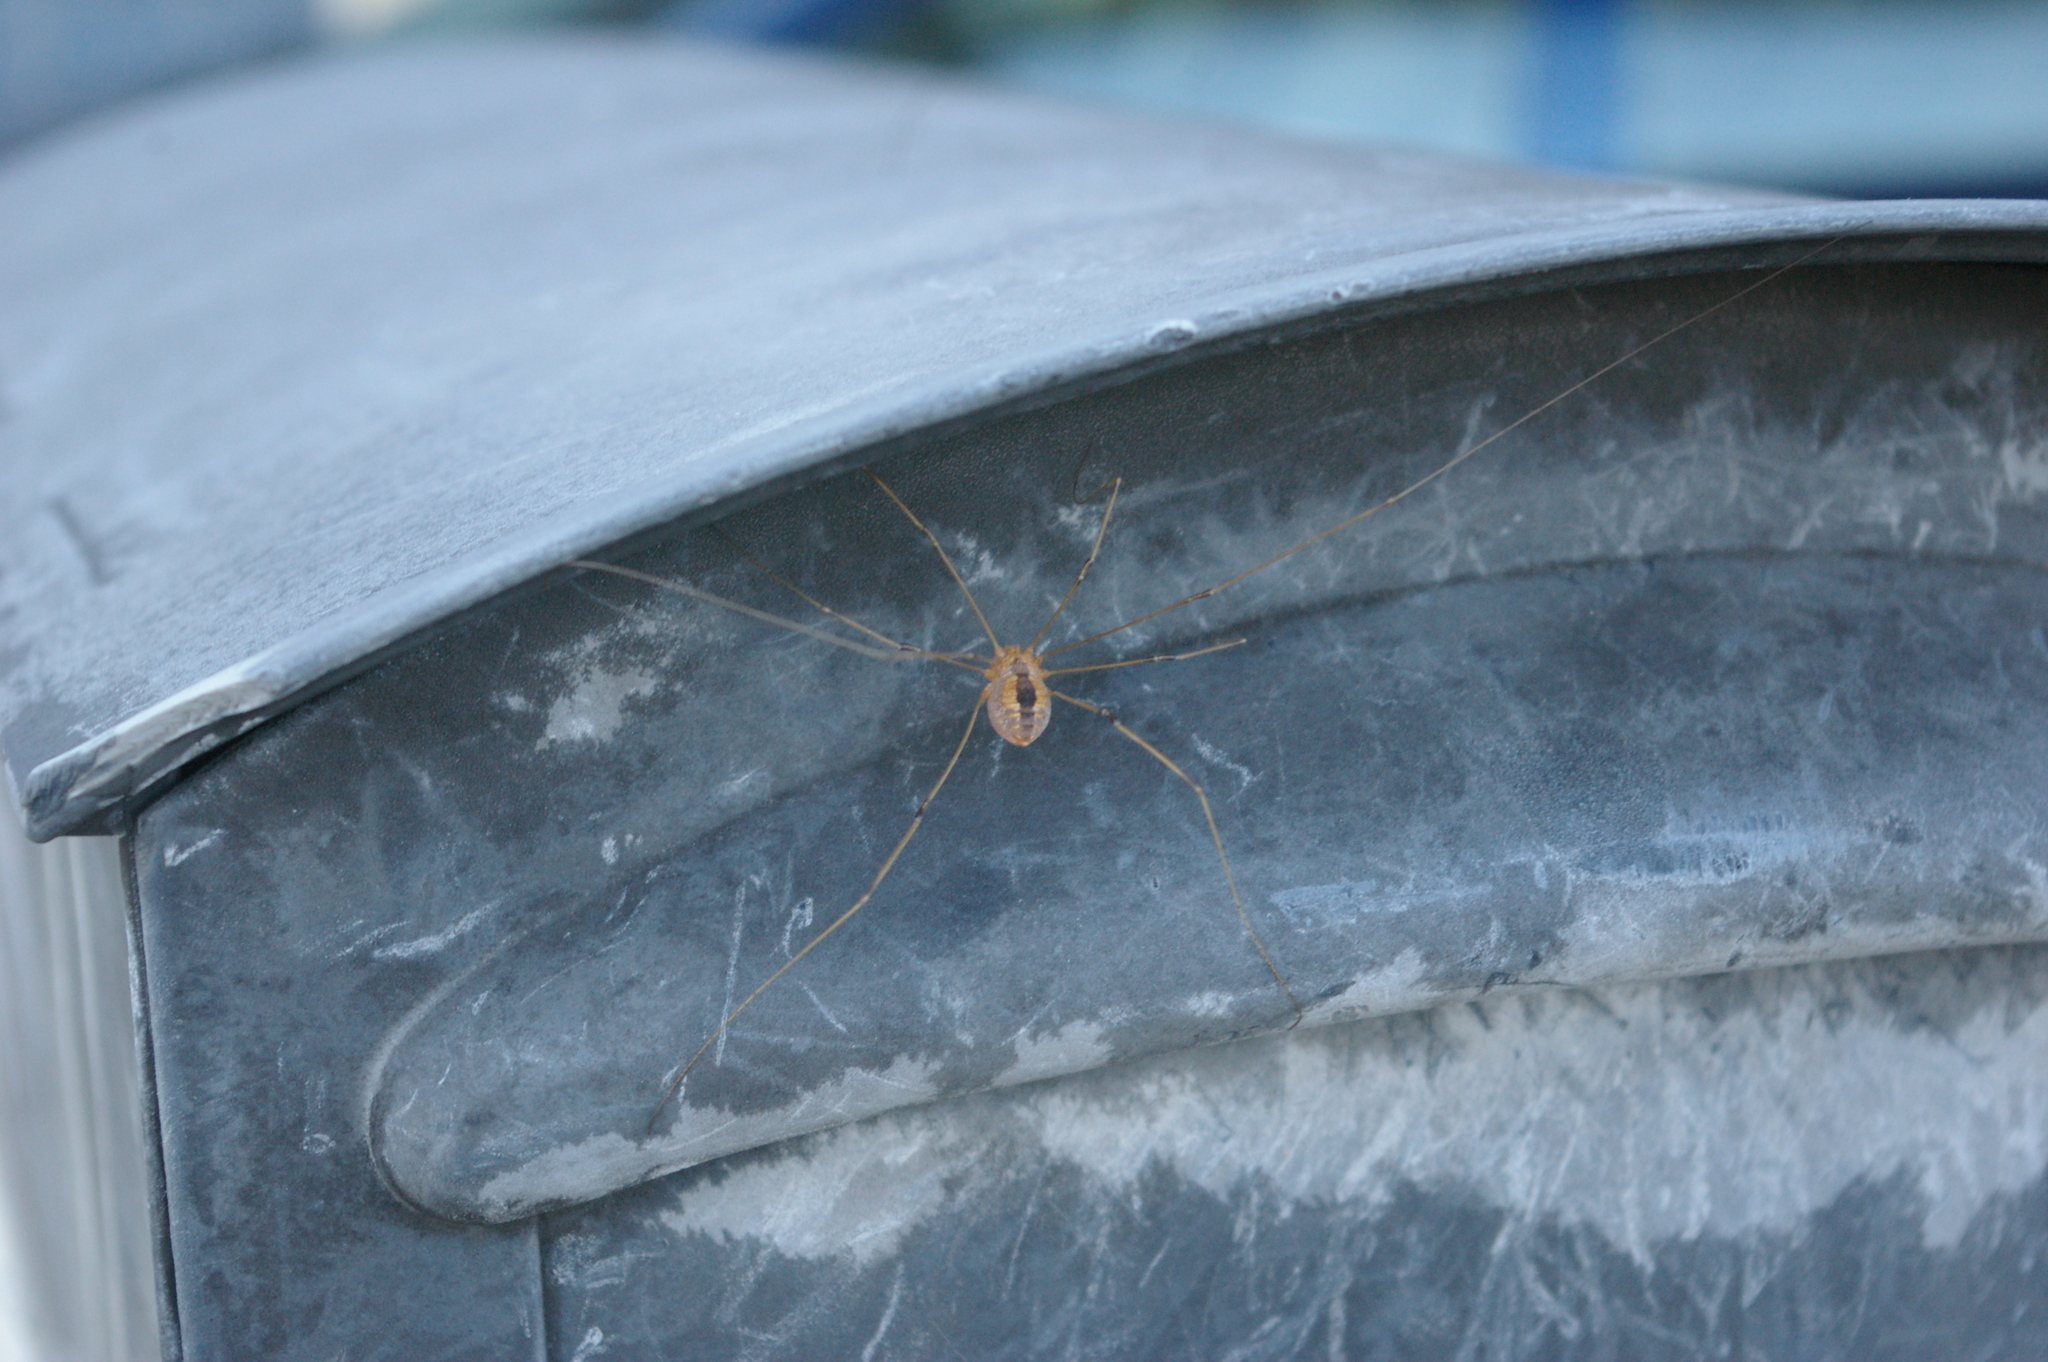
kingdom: Animalia
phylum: Arthropoda
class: Arachnida
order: Opiliones
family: Sclerosomatidae
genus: Leiobunum
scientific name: Leiobunum vittatum
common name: Eastern harvestman
